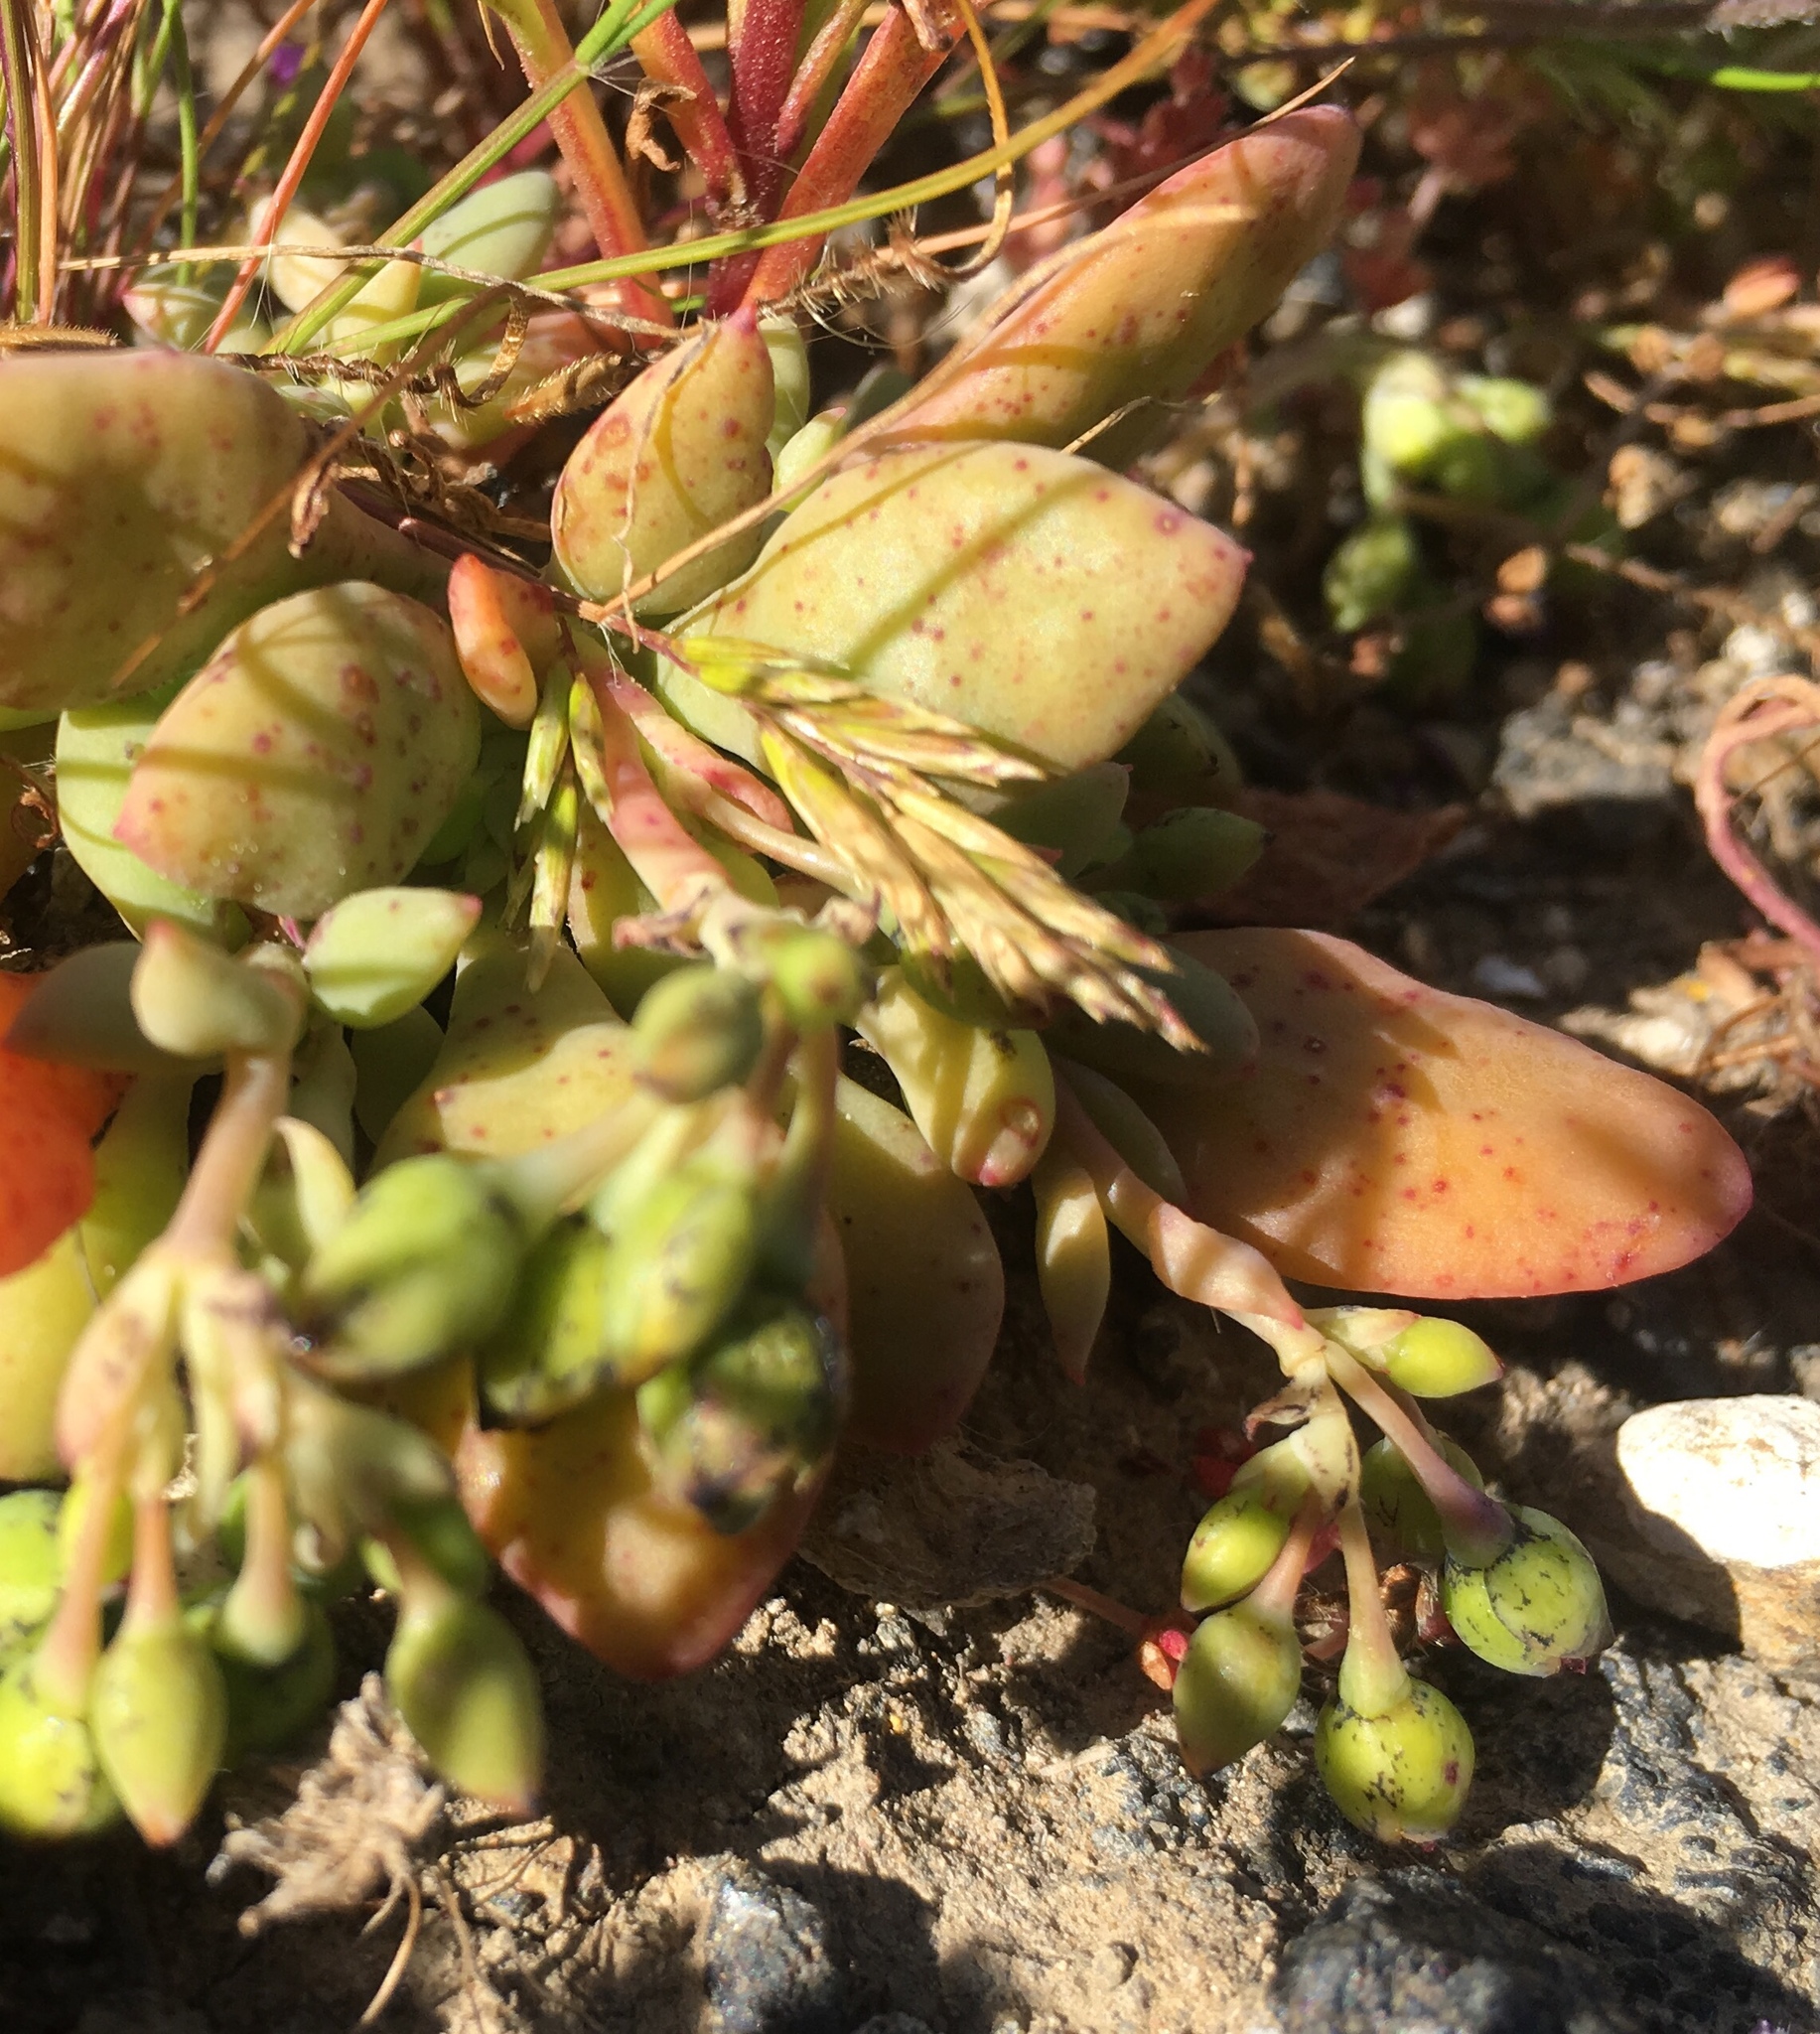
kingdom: Plantae
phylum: Tracheophyta
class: Magnoliopsida
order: Caryophyllales
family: Montiaceae
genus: Cistanthe
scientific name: Cistanthe maritima
